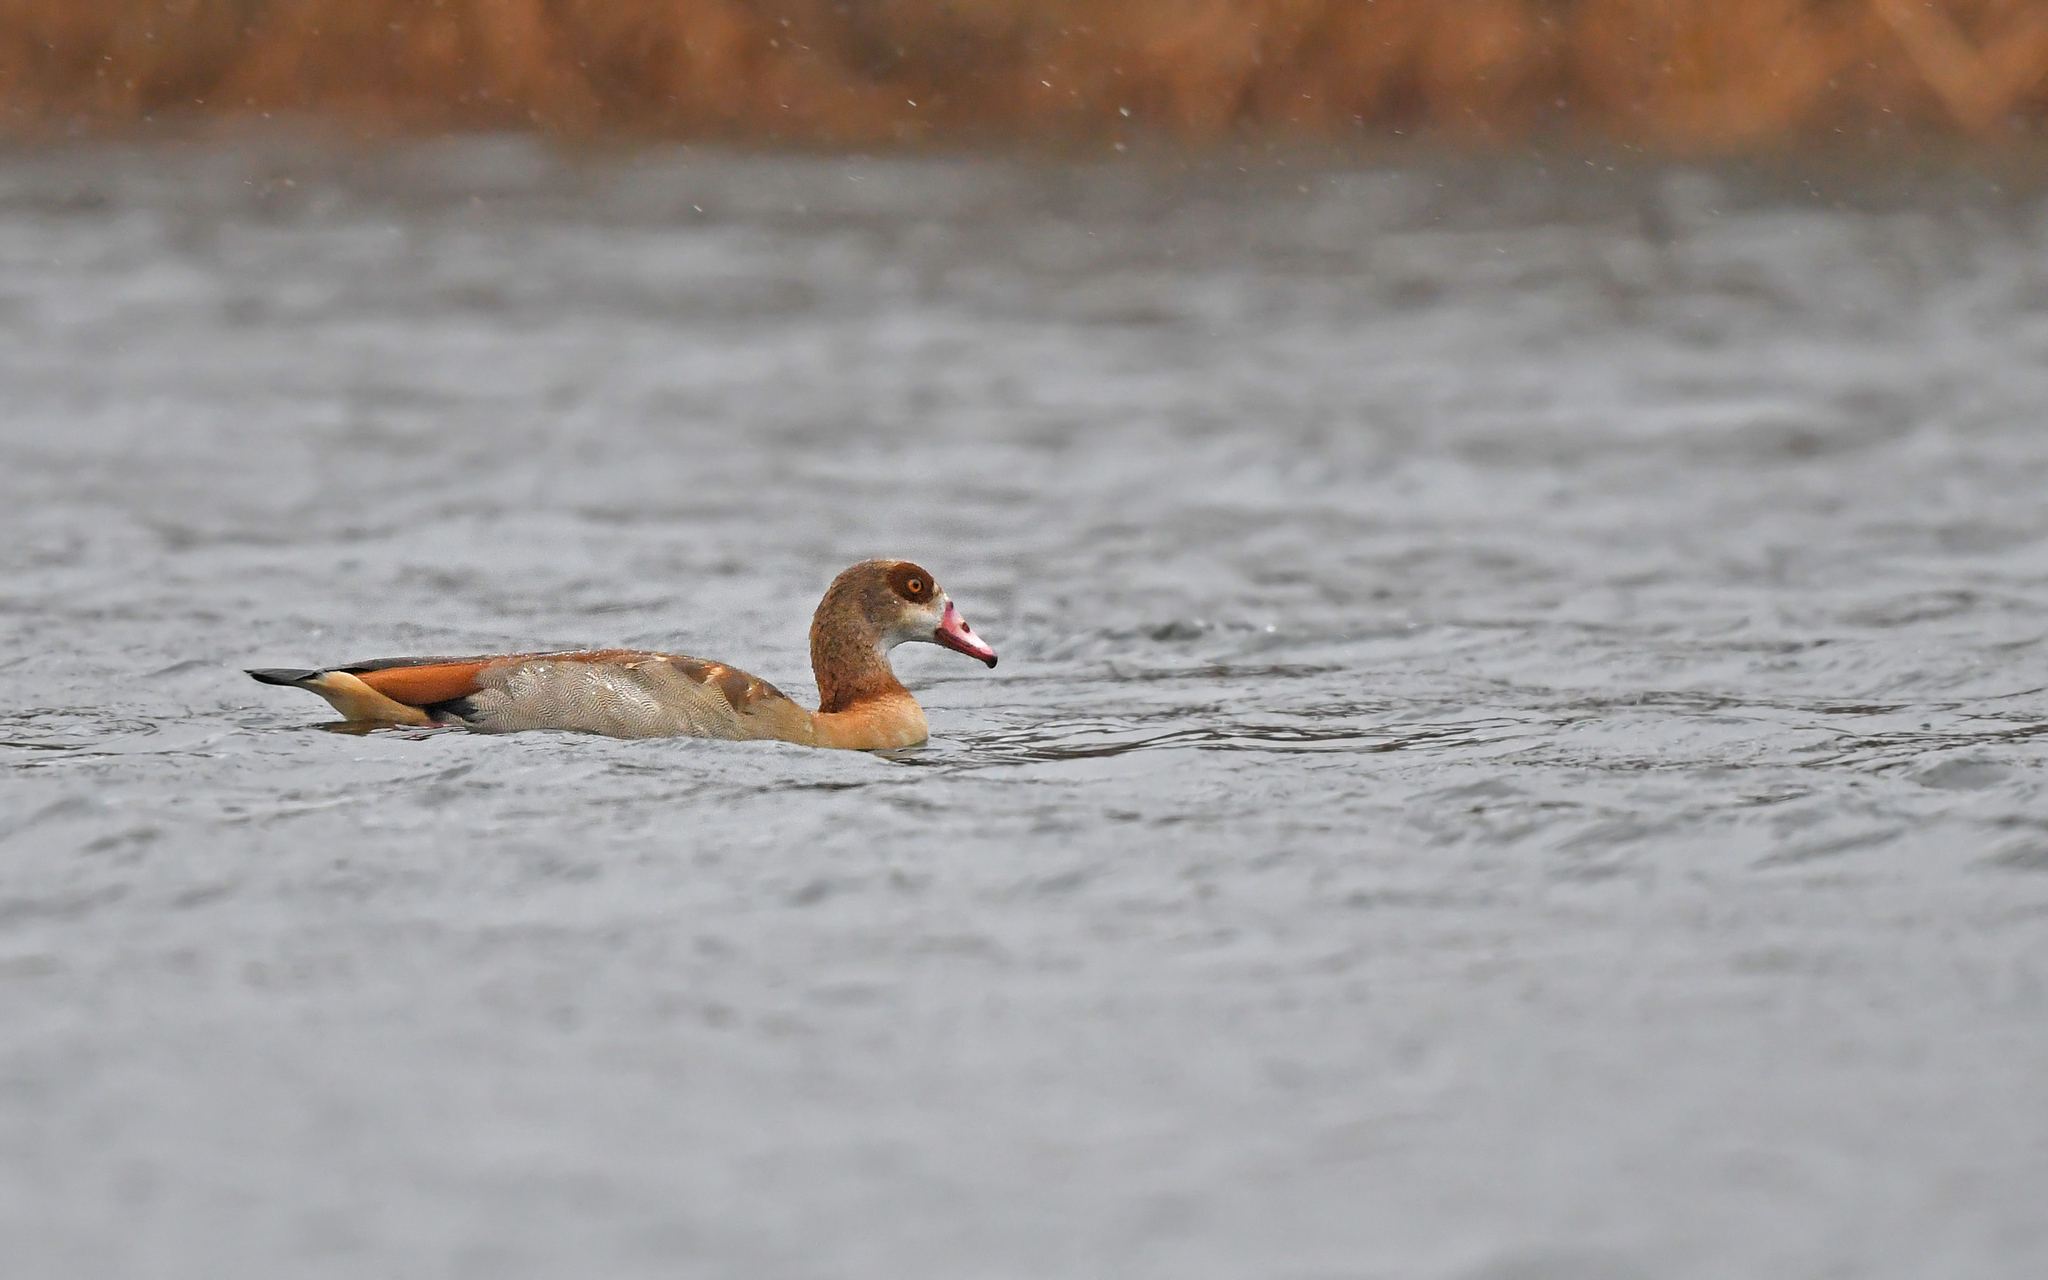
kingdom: Animalia
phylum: Chordata
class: Aves
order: Anseriformes
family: Anatidae
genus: Alopochen
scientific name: Alopochen aegyptiaca
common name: Egyptian goose
